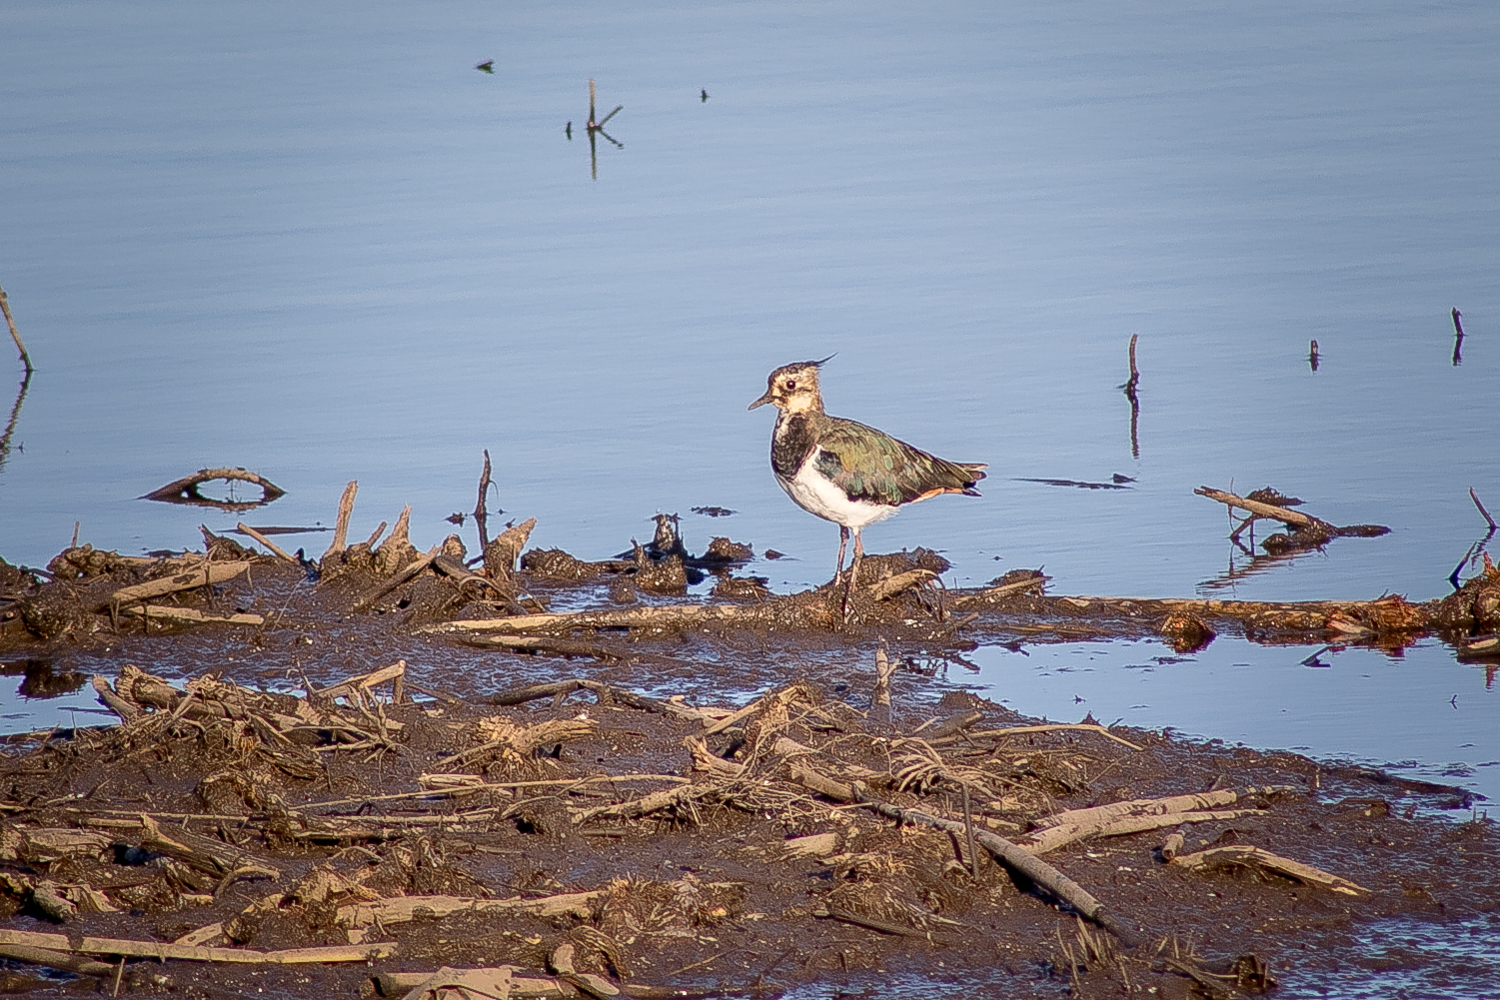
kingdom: Animalia
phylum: Chordata
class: Aves
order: Charadriiformes
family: Charadriidae
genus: Vanellus
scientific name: Vanellus vanellus
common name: Northern lapwing
